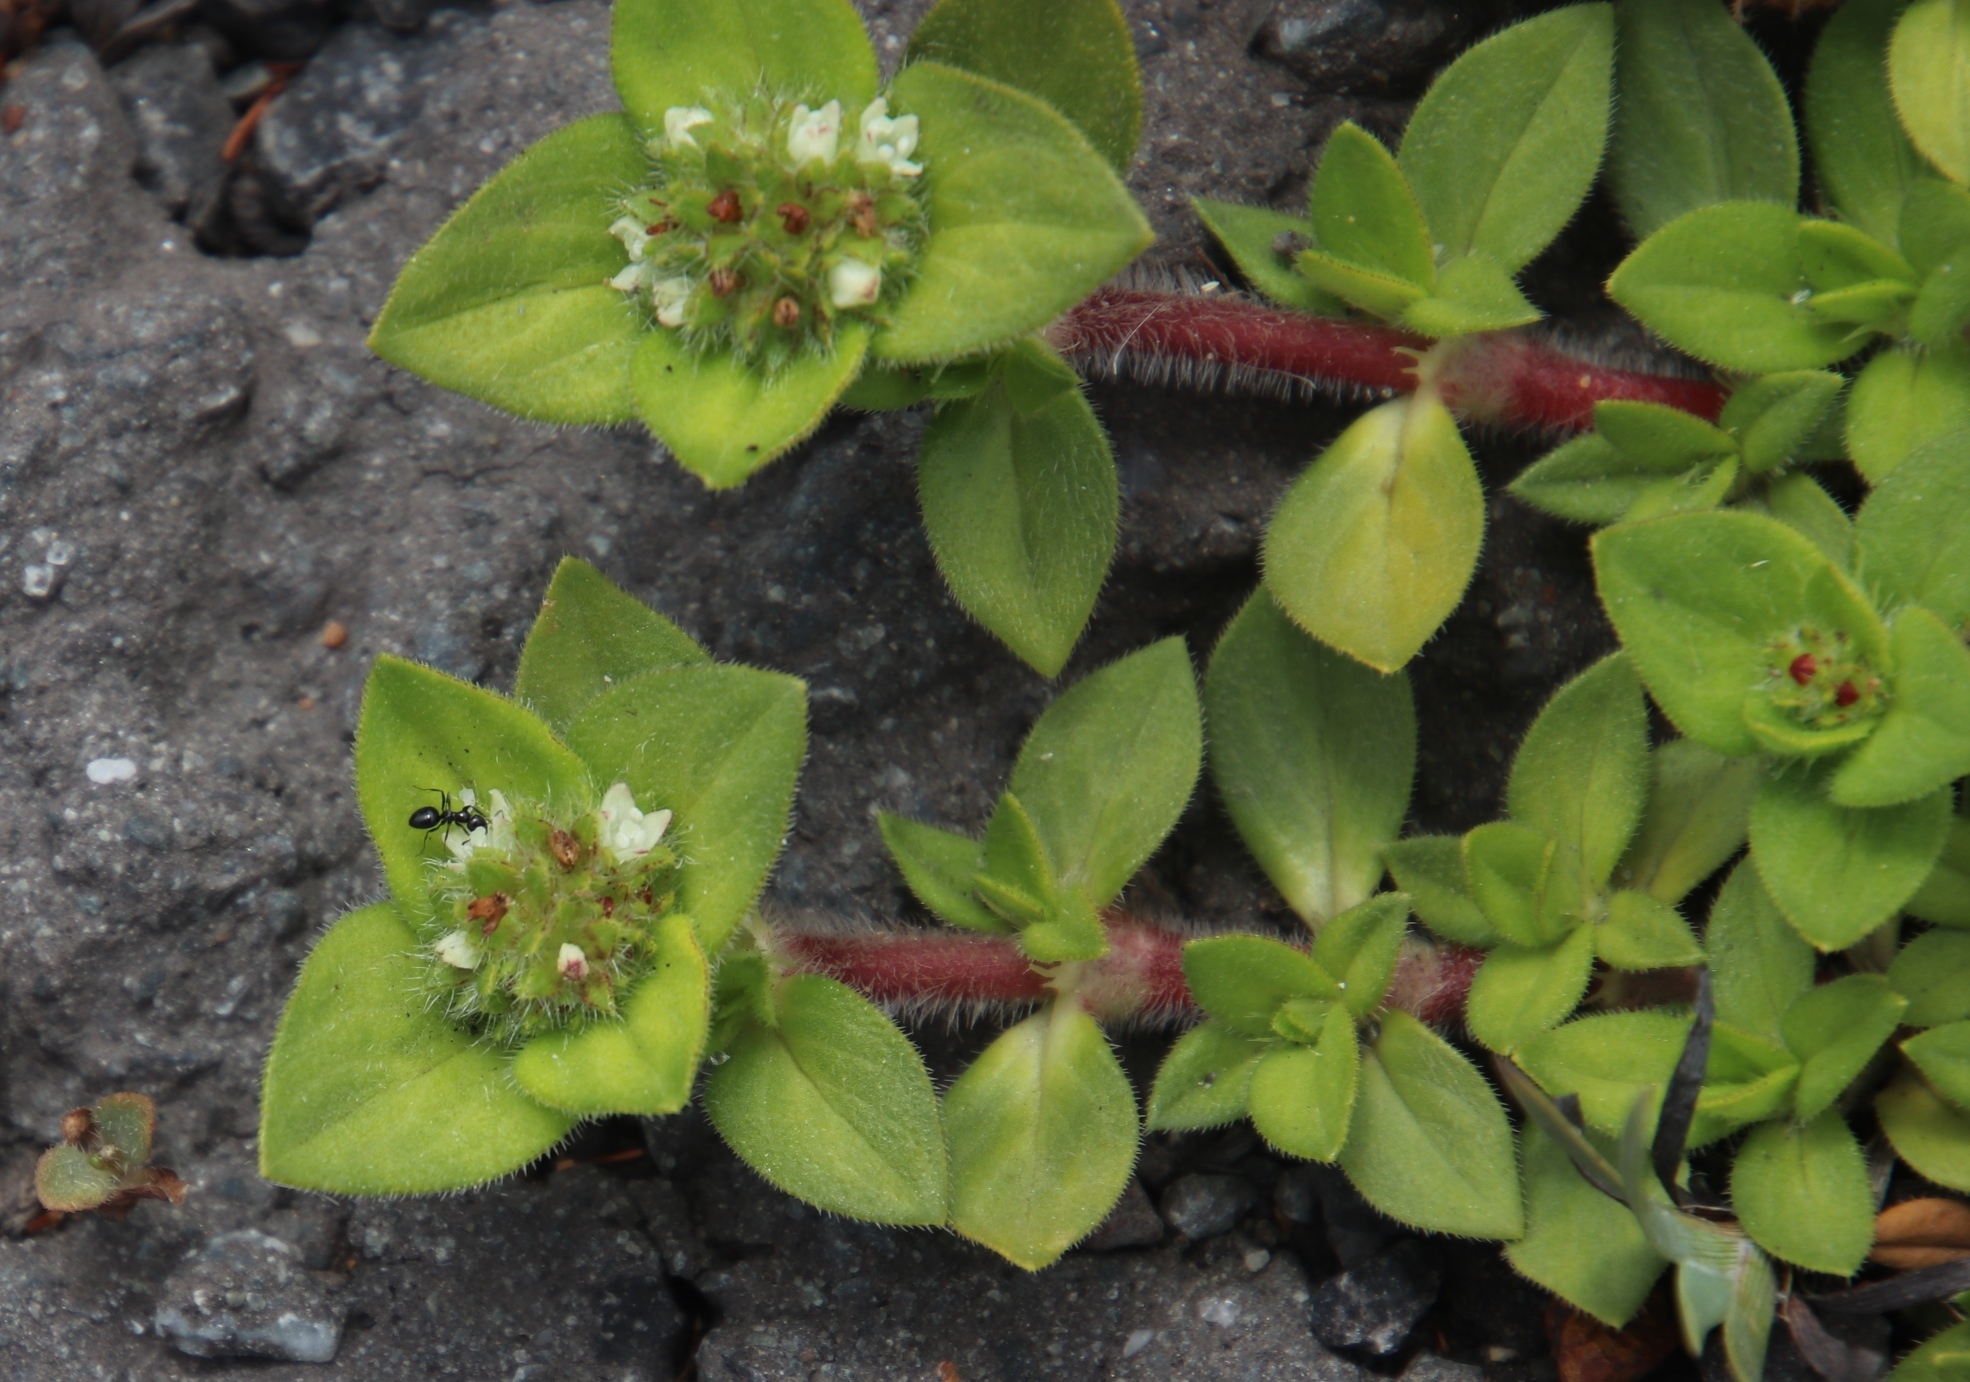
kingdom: Plantae
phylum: Tracheophyta
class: Magnoliopsida
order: Gentianales
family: Rubiaceae
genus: Richardia
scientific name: Richardia brasiliensis
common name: Tropical mexican clover
